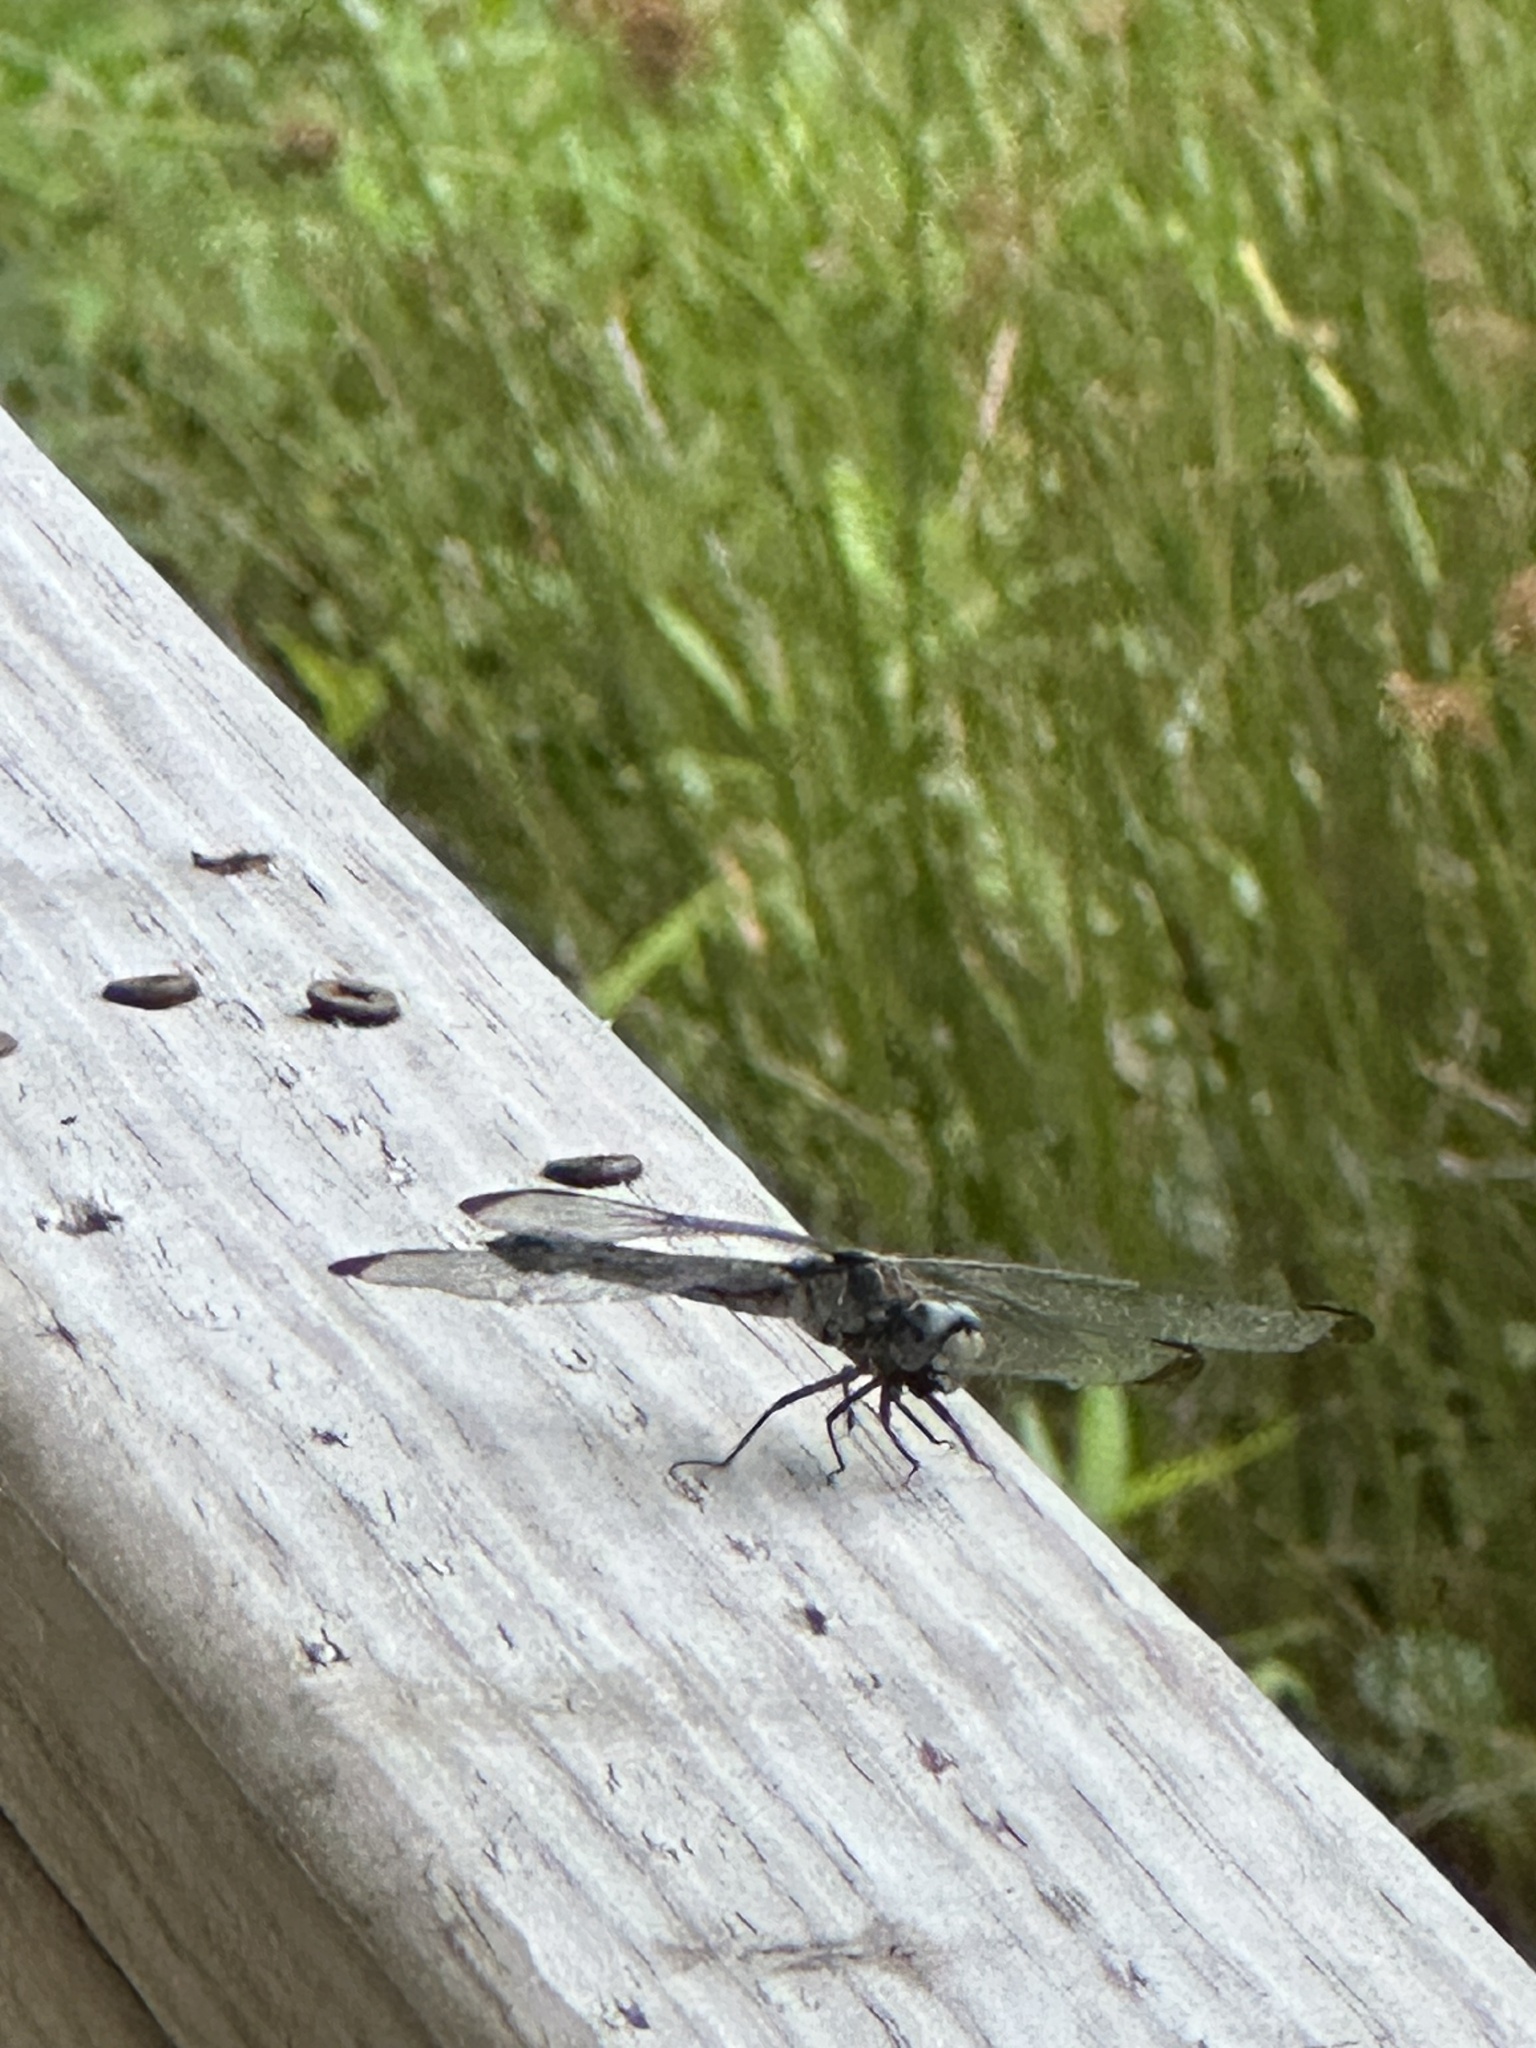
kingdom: Animalia
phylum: Arthropoda
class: Insecta
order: Odonata
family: Libellulidae
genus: Libellula
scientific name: Libellula vibrans
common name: Great blue skimmer
